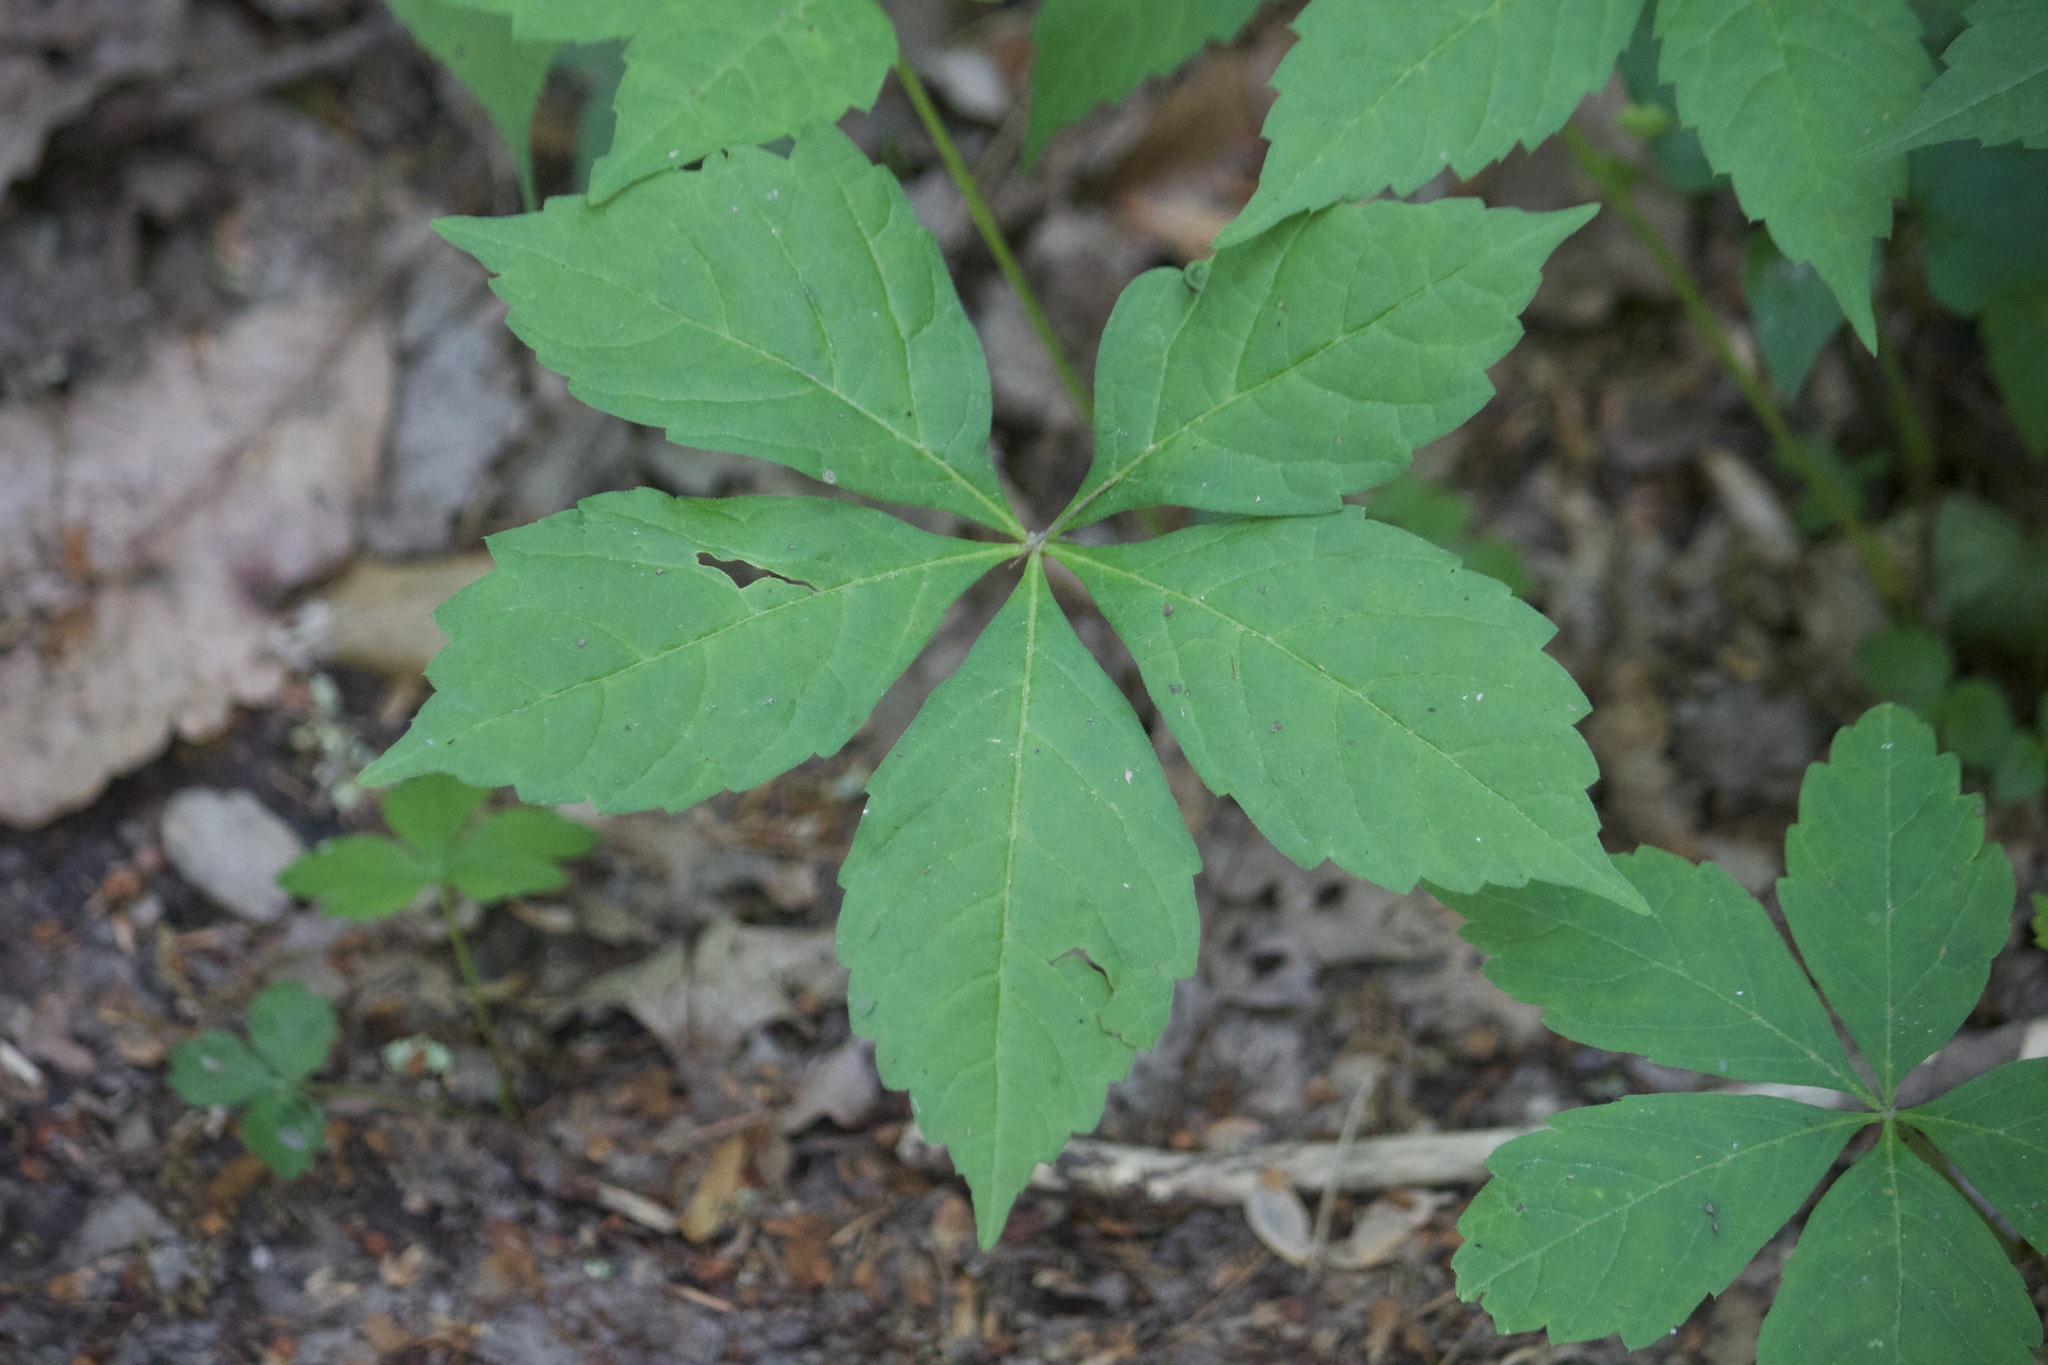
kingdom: Plantae
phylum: Tracheophyta
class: Magnoliopsida
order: Vitales
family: Vitaceae
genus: Parthenocissus
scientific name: Parthenocissus quinquefolia
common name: Virginia-creeper
